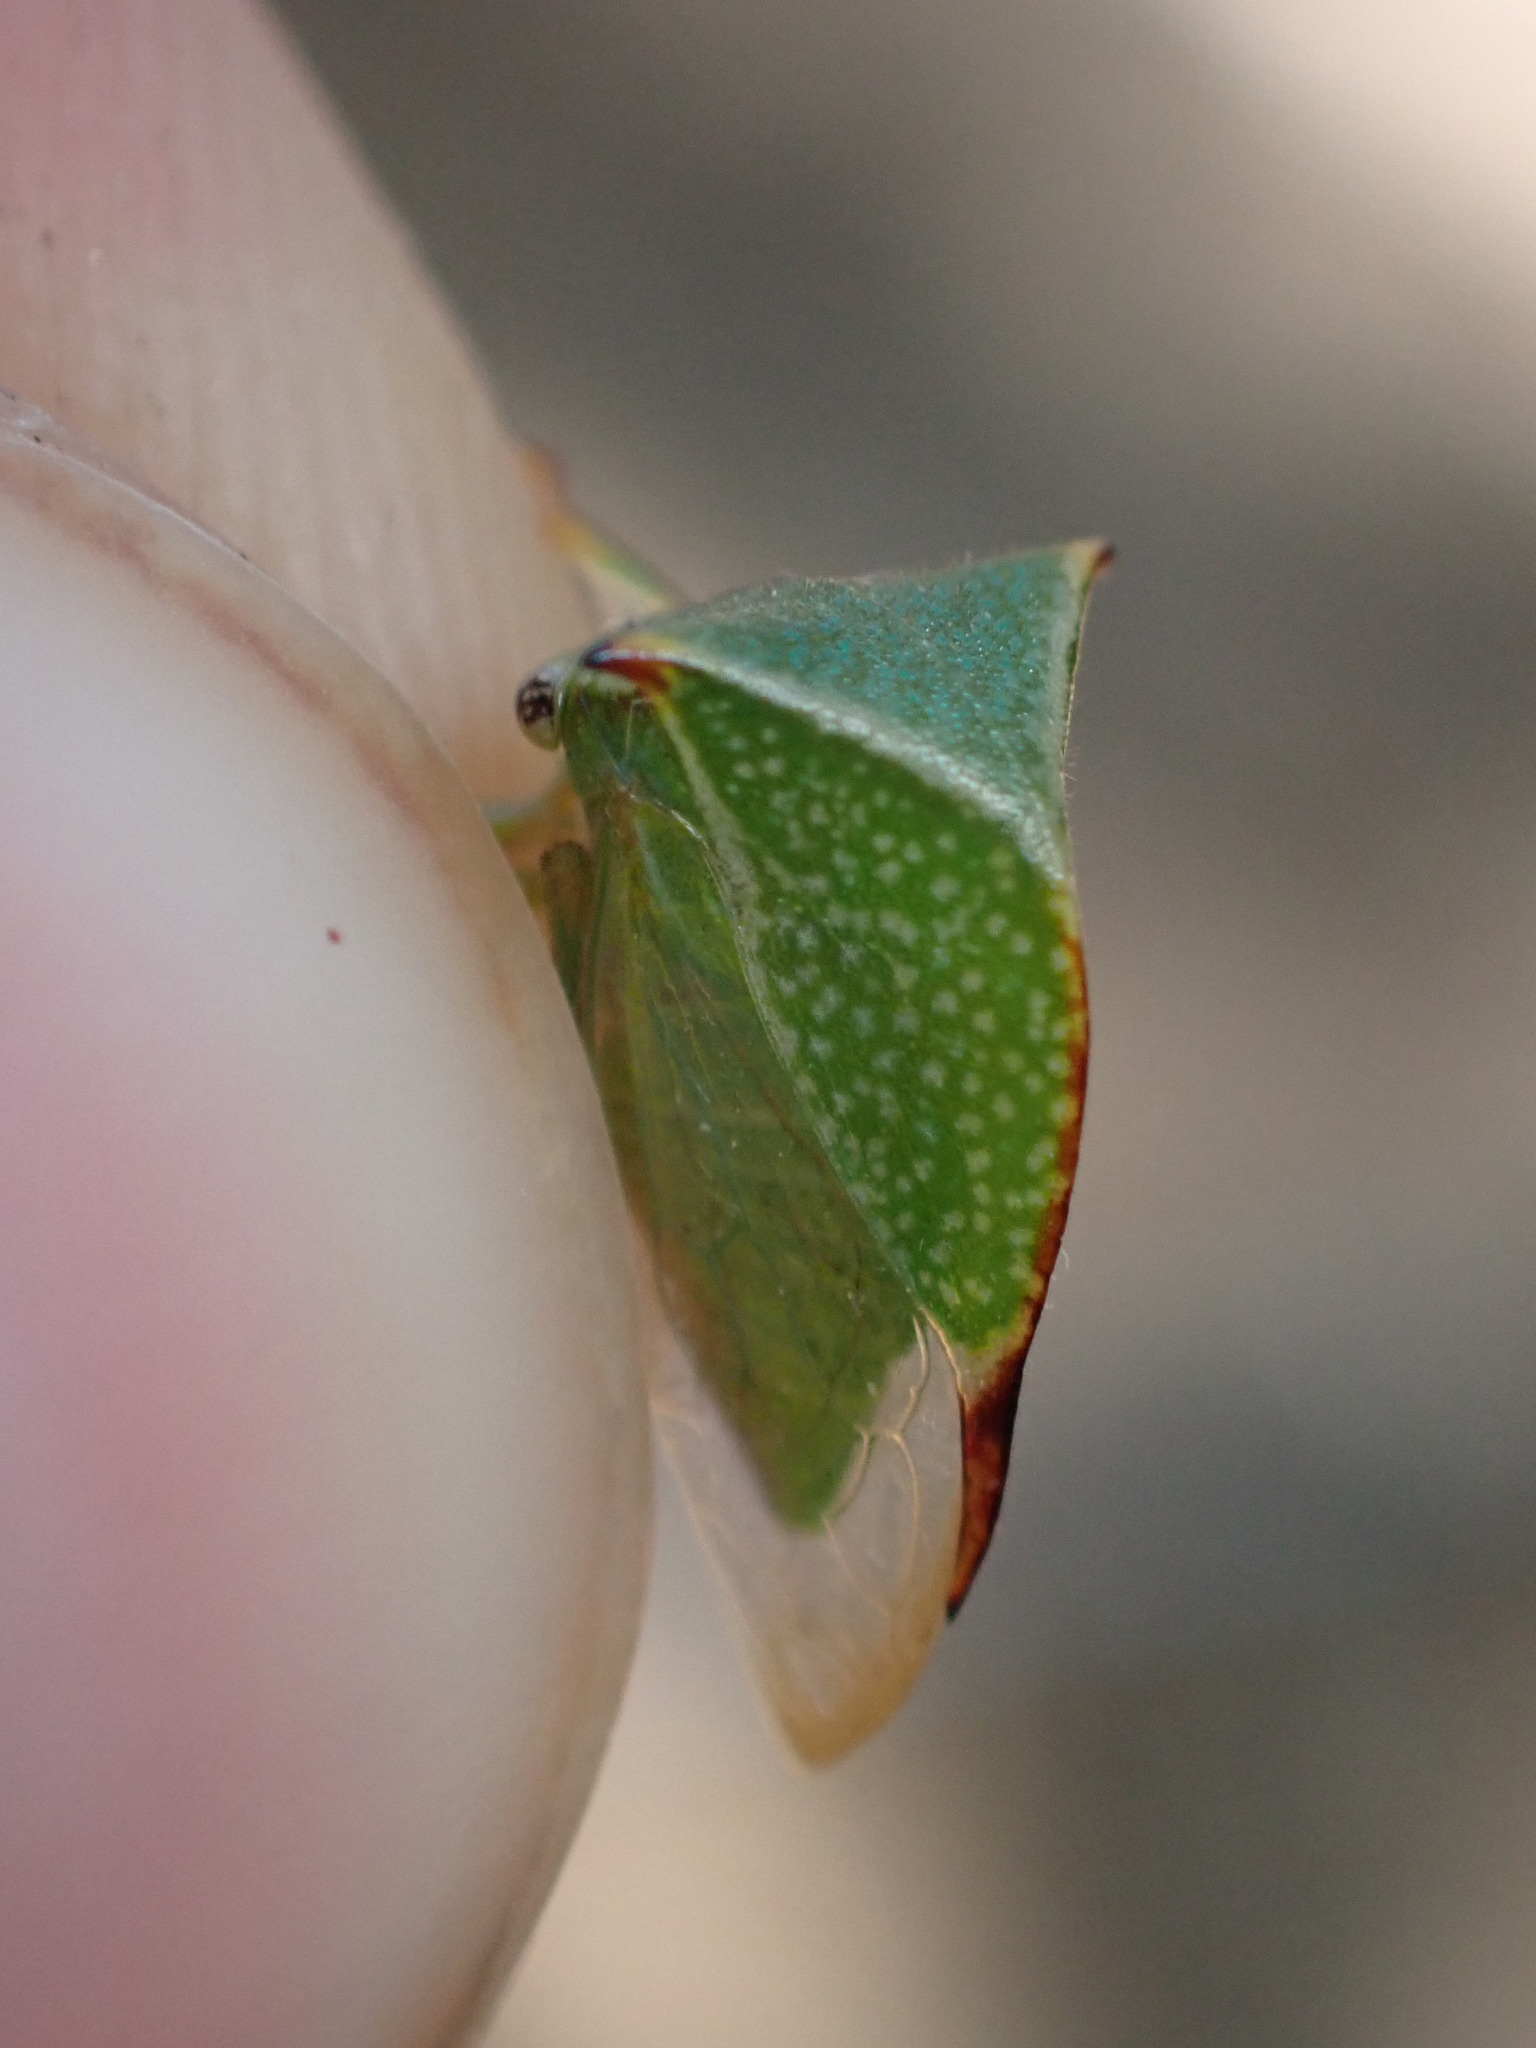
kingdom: Animalia
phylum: Arthropoda
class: Insecta
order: Hemiptera
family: Membracidae
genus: Stictocephala
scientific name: Stictocephala bisonia
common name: American buffalo treehopper
